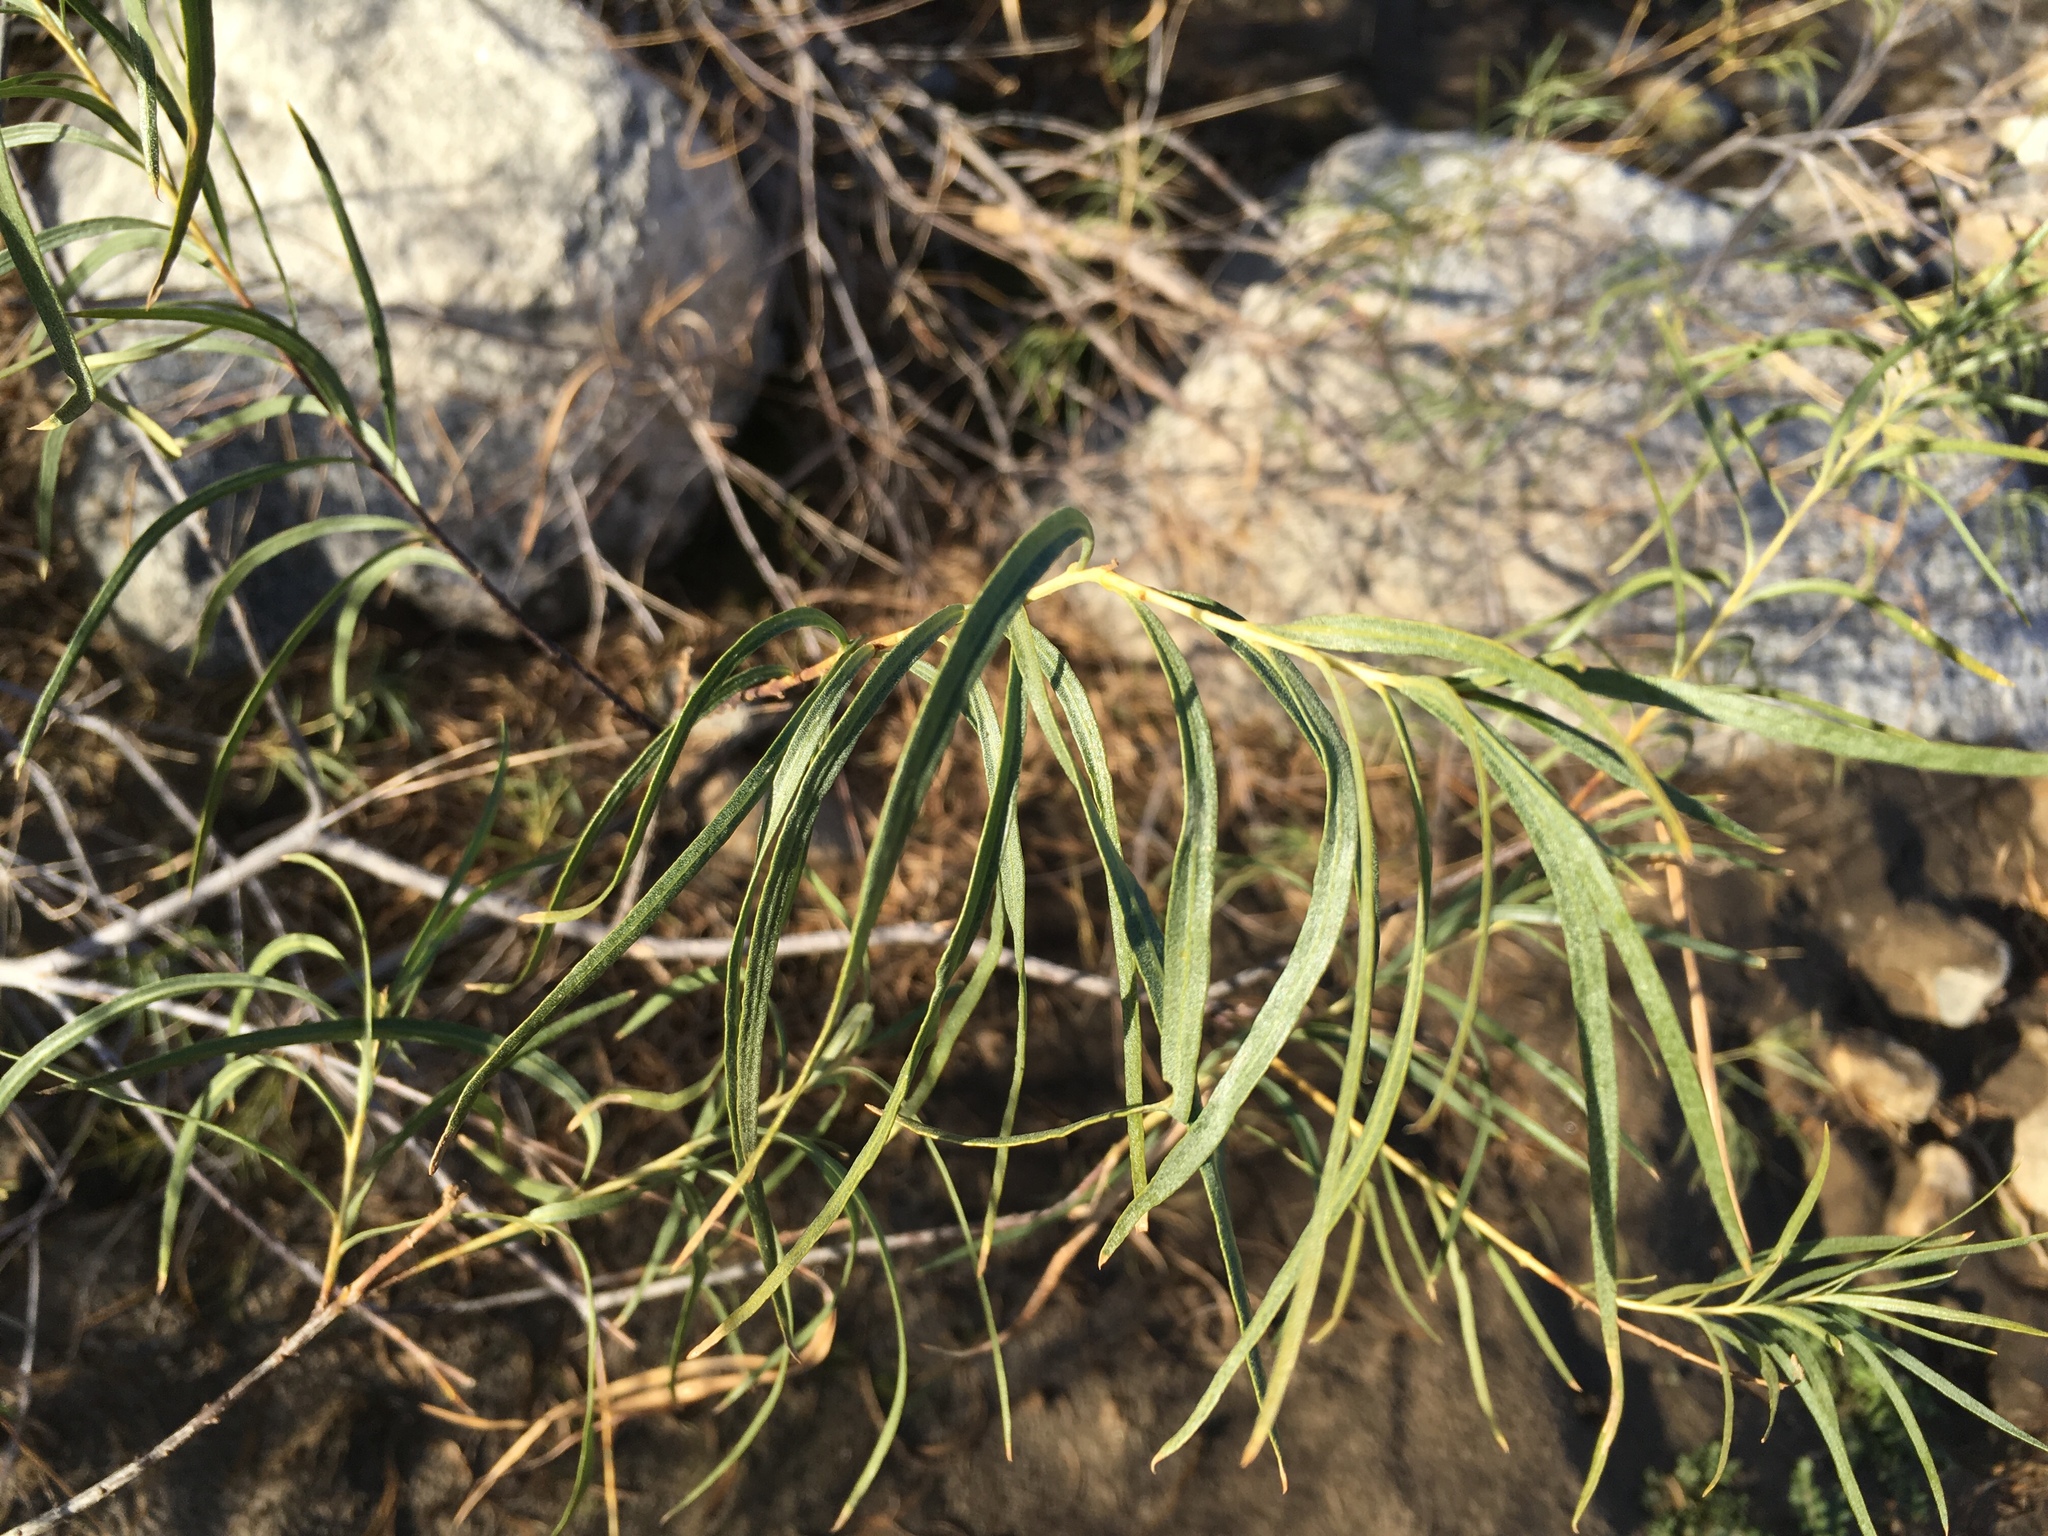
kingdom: Plantae
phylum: Tracheophyta
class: Magnoliopsida
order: Lamiales
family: Bignoniaceae
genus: Chilopsis
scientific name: Chilopsis linearis
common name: Desert-willow
